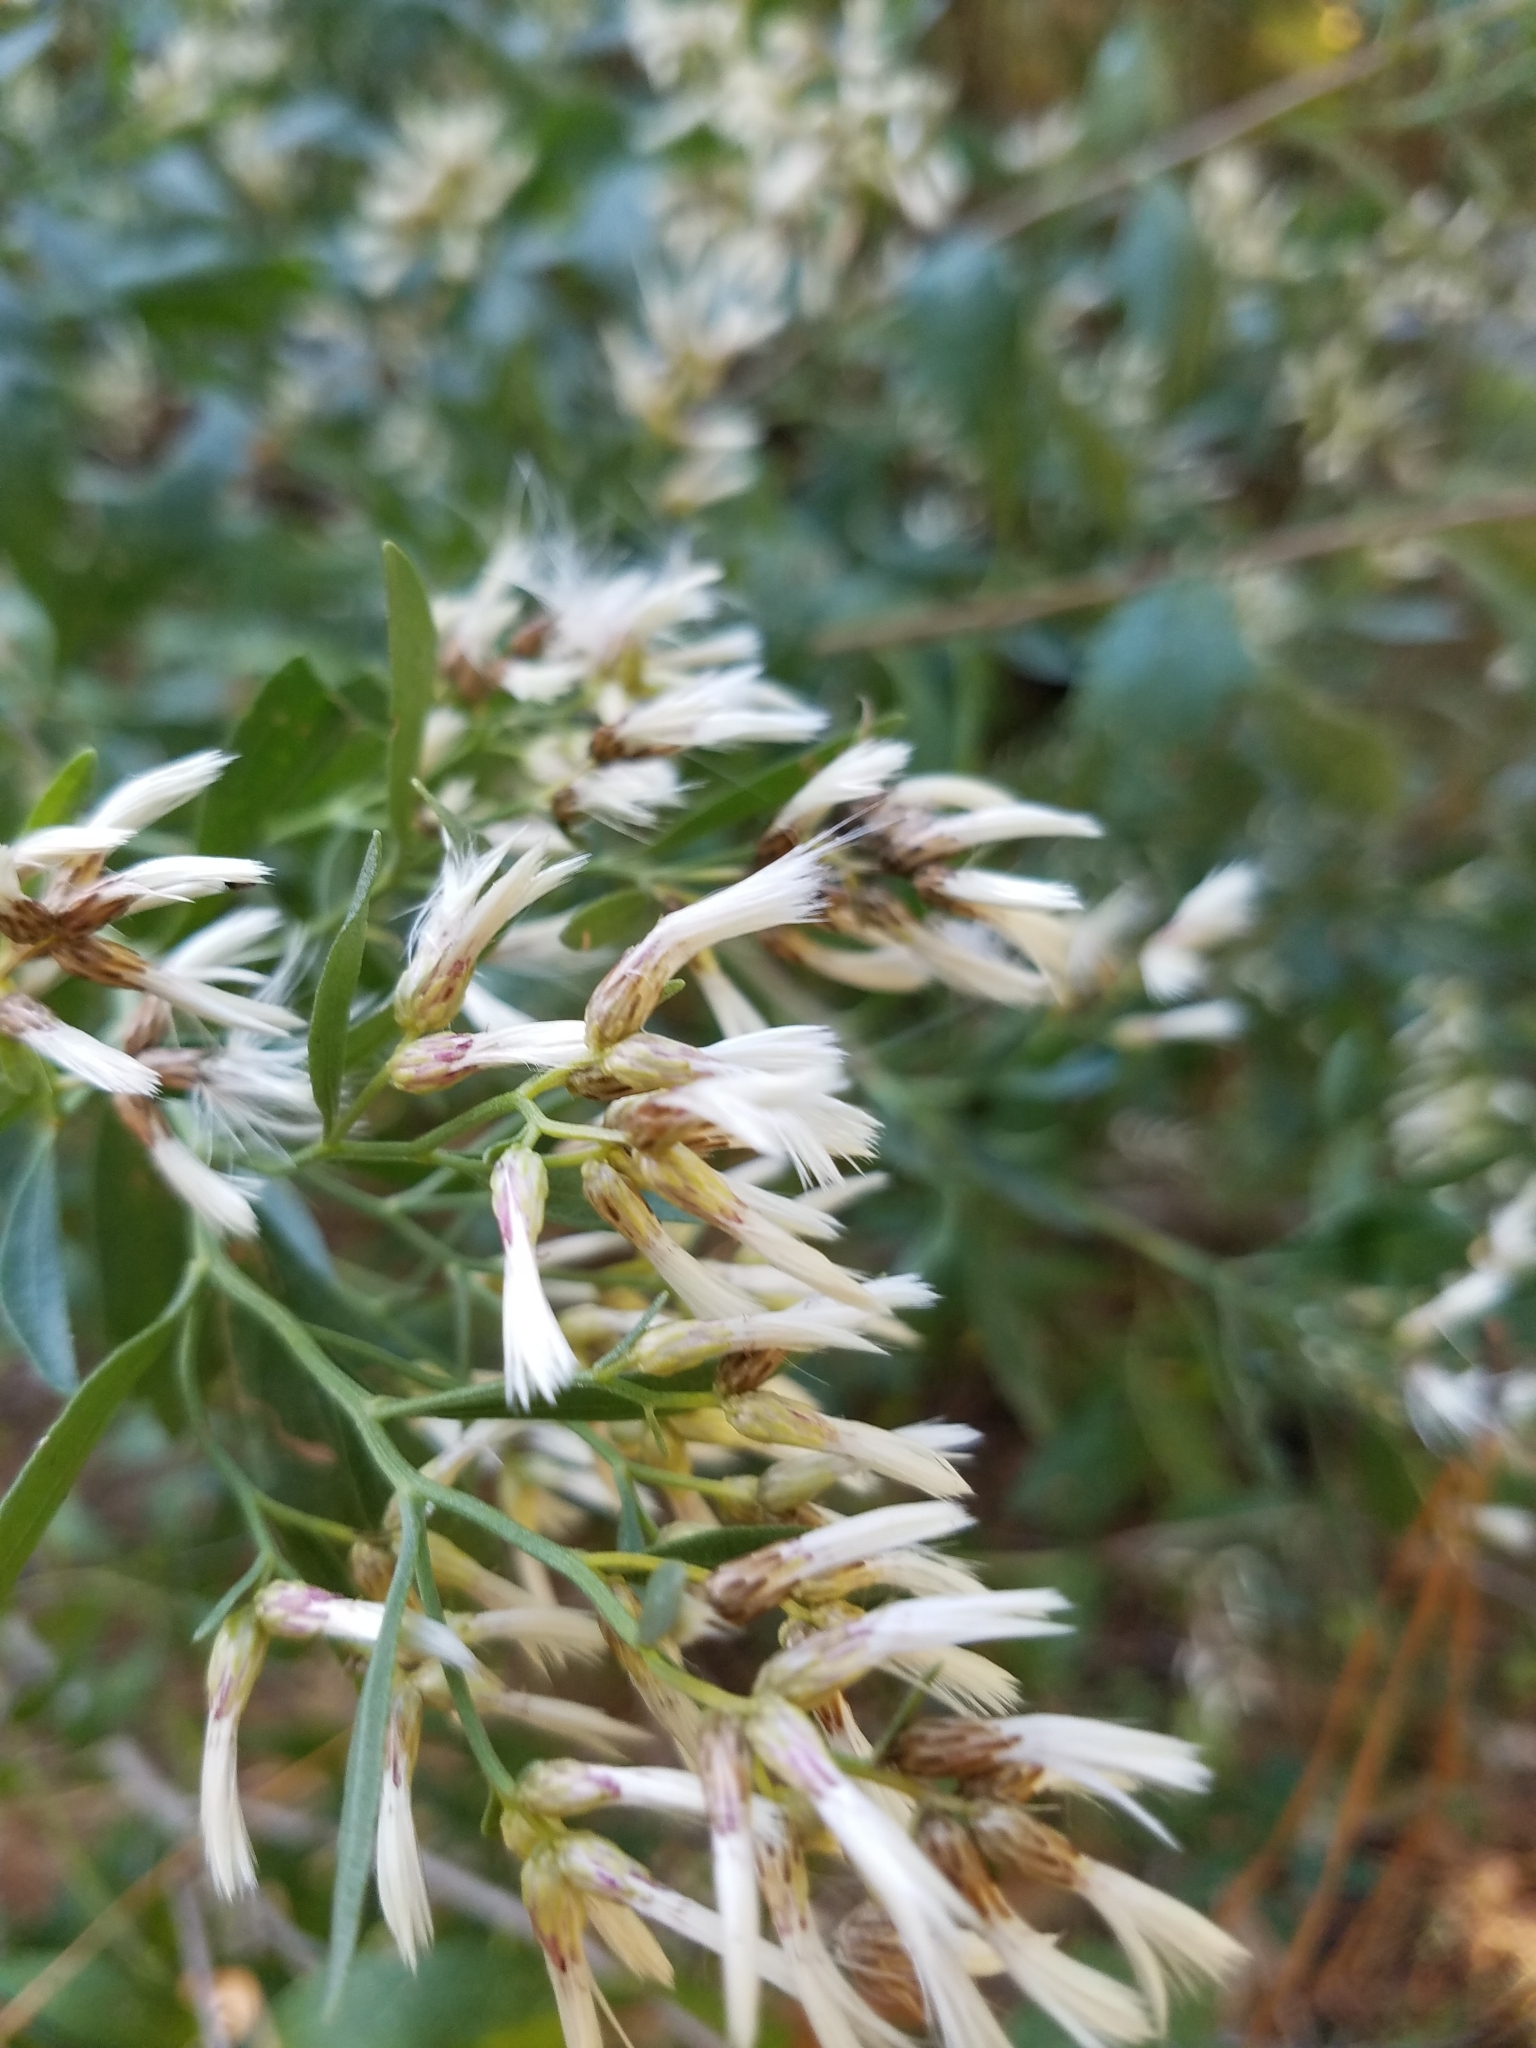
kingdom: Plantae
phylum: Tracheophyta
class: Magnoliopsida
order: Asterales
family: Asteraceae
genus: Baccharis
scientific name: Baccharis halimifolia
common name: Eastern baccharis
